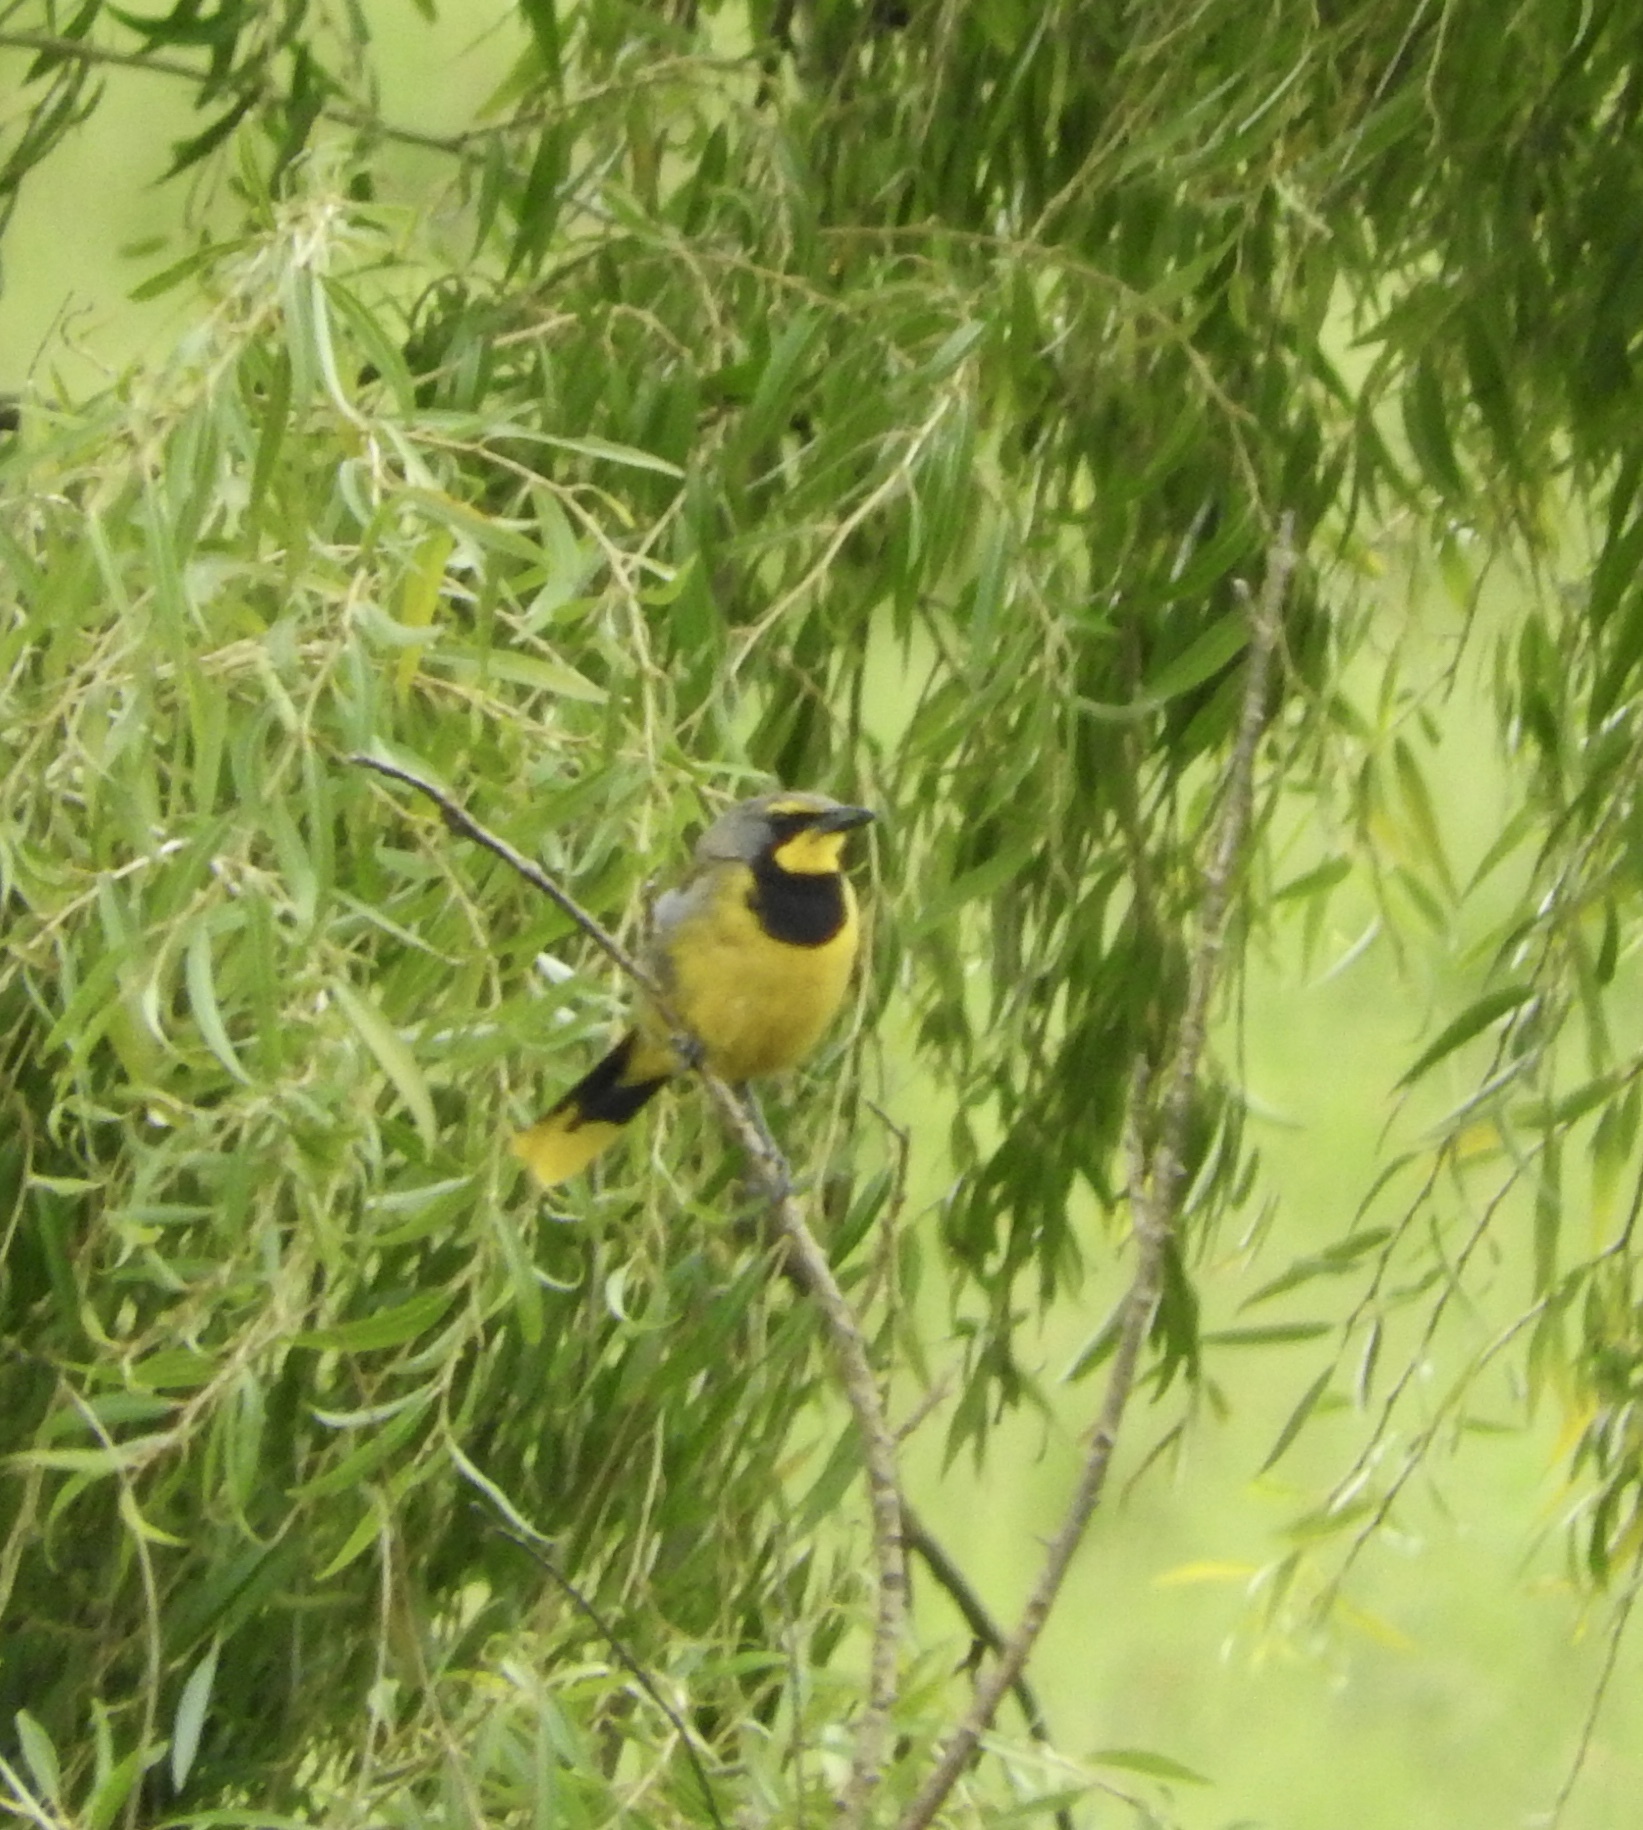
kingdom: Animalia
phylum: Chordata
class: Aves
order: Passeriformes
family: Malaconotidae
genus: Telophorus
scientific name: Telophorus zeylonus
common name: Bokmakierie
